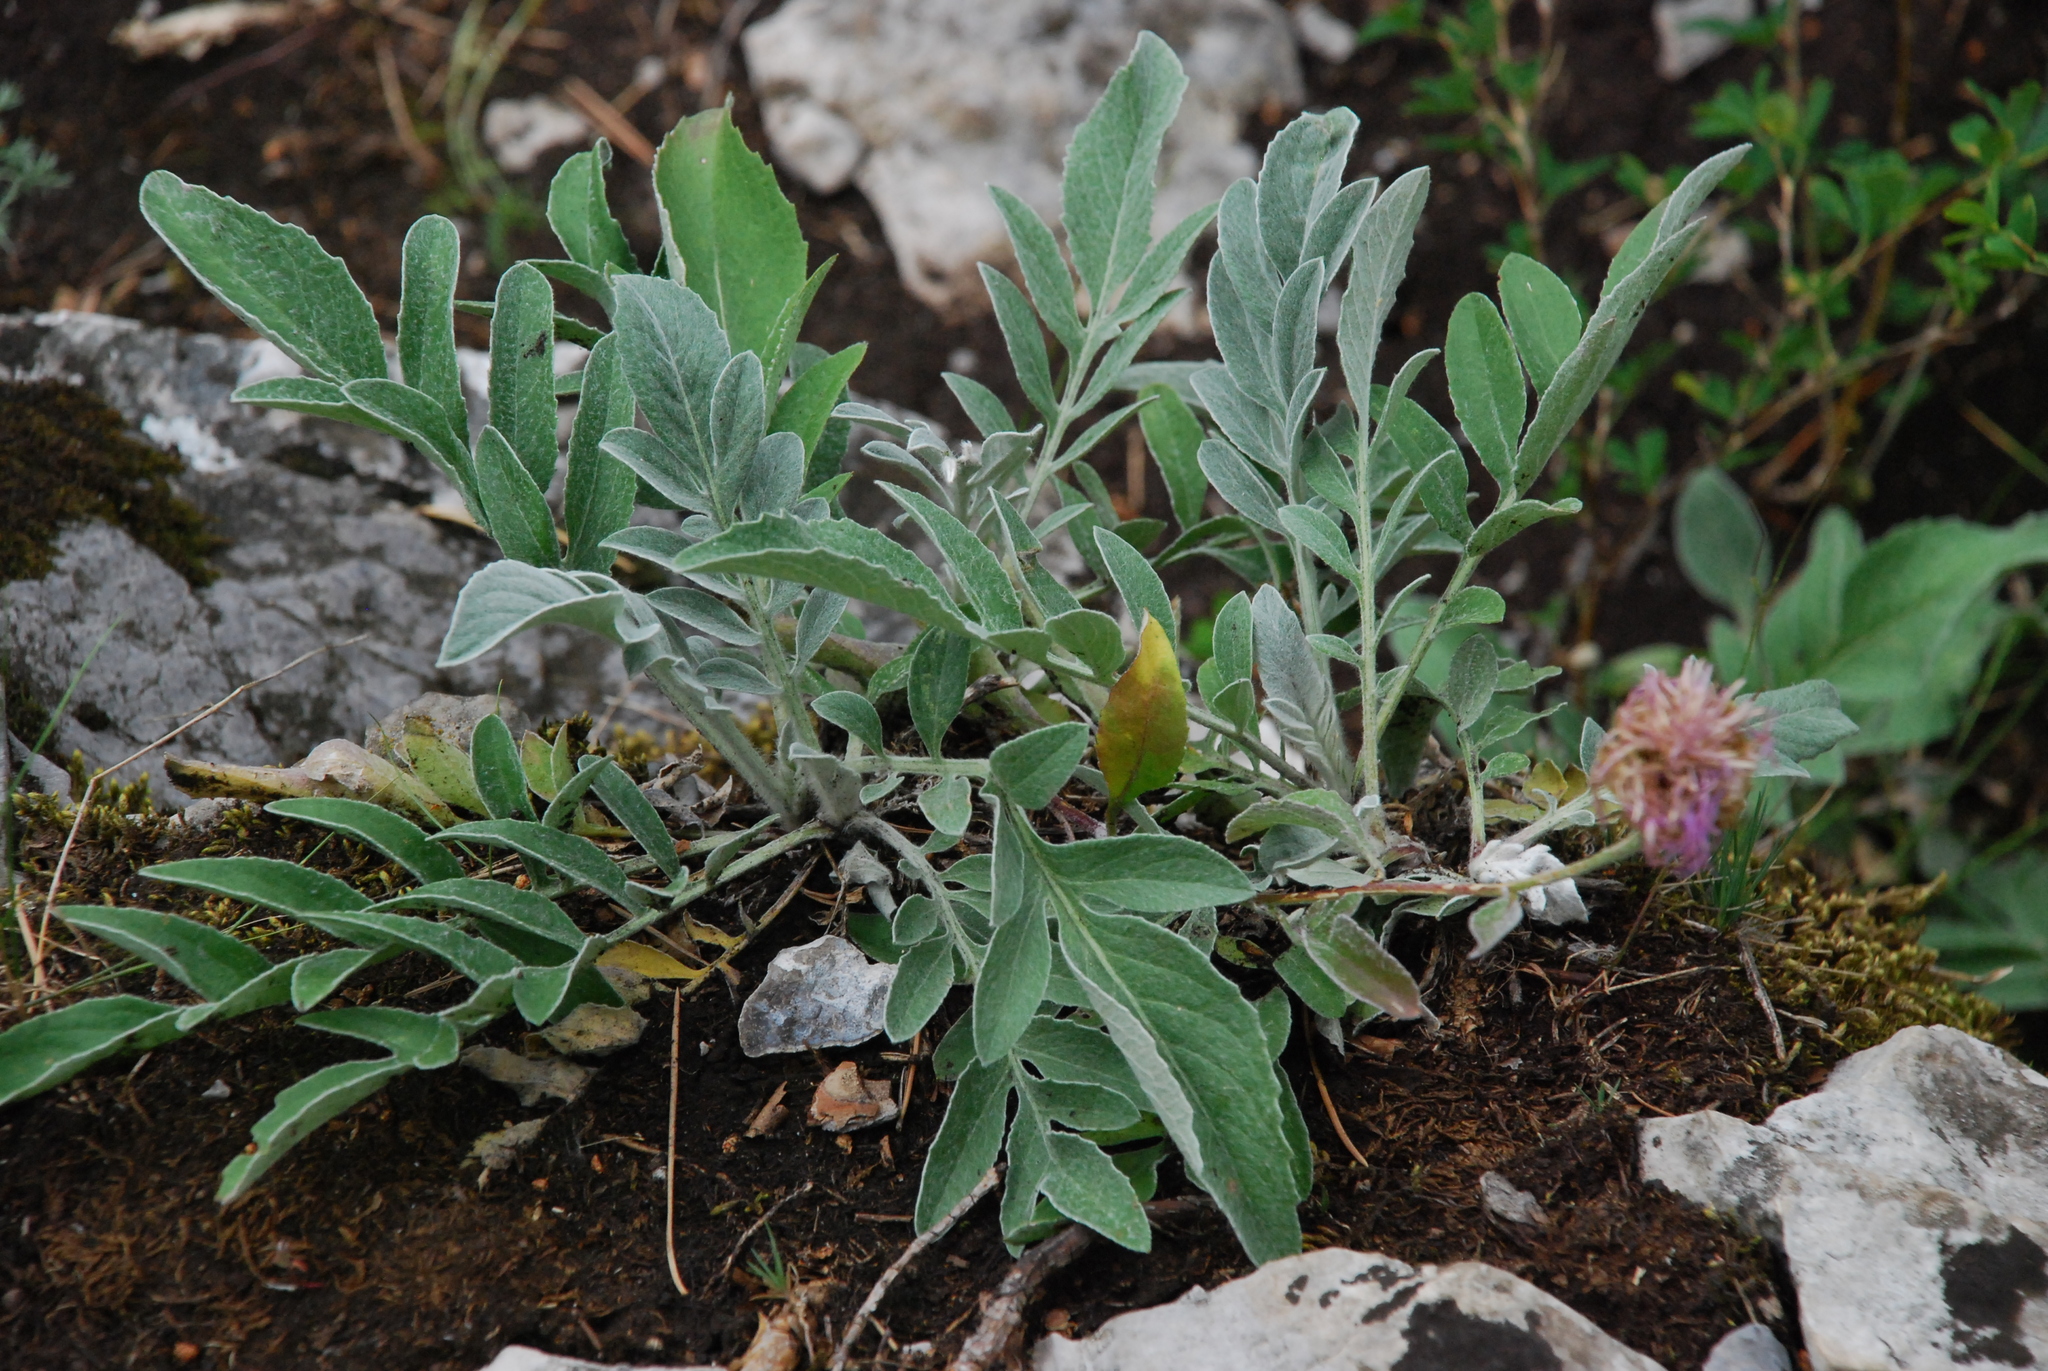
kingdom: Plantae
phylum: Tracheophyta
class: Magnoliopsida
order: Asterales
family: Asteraceae
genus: Psephellus
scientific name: Psephellus marschallianus
